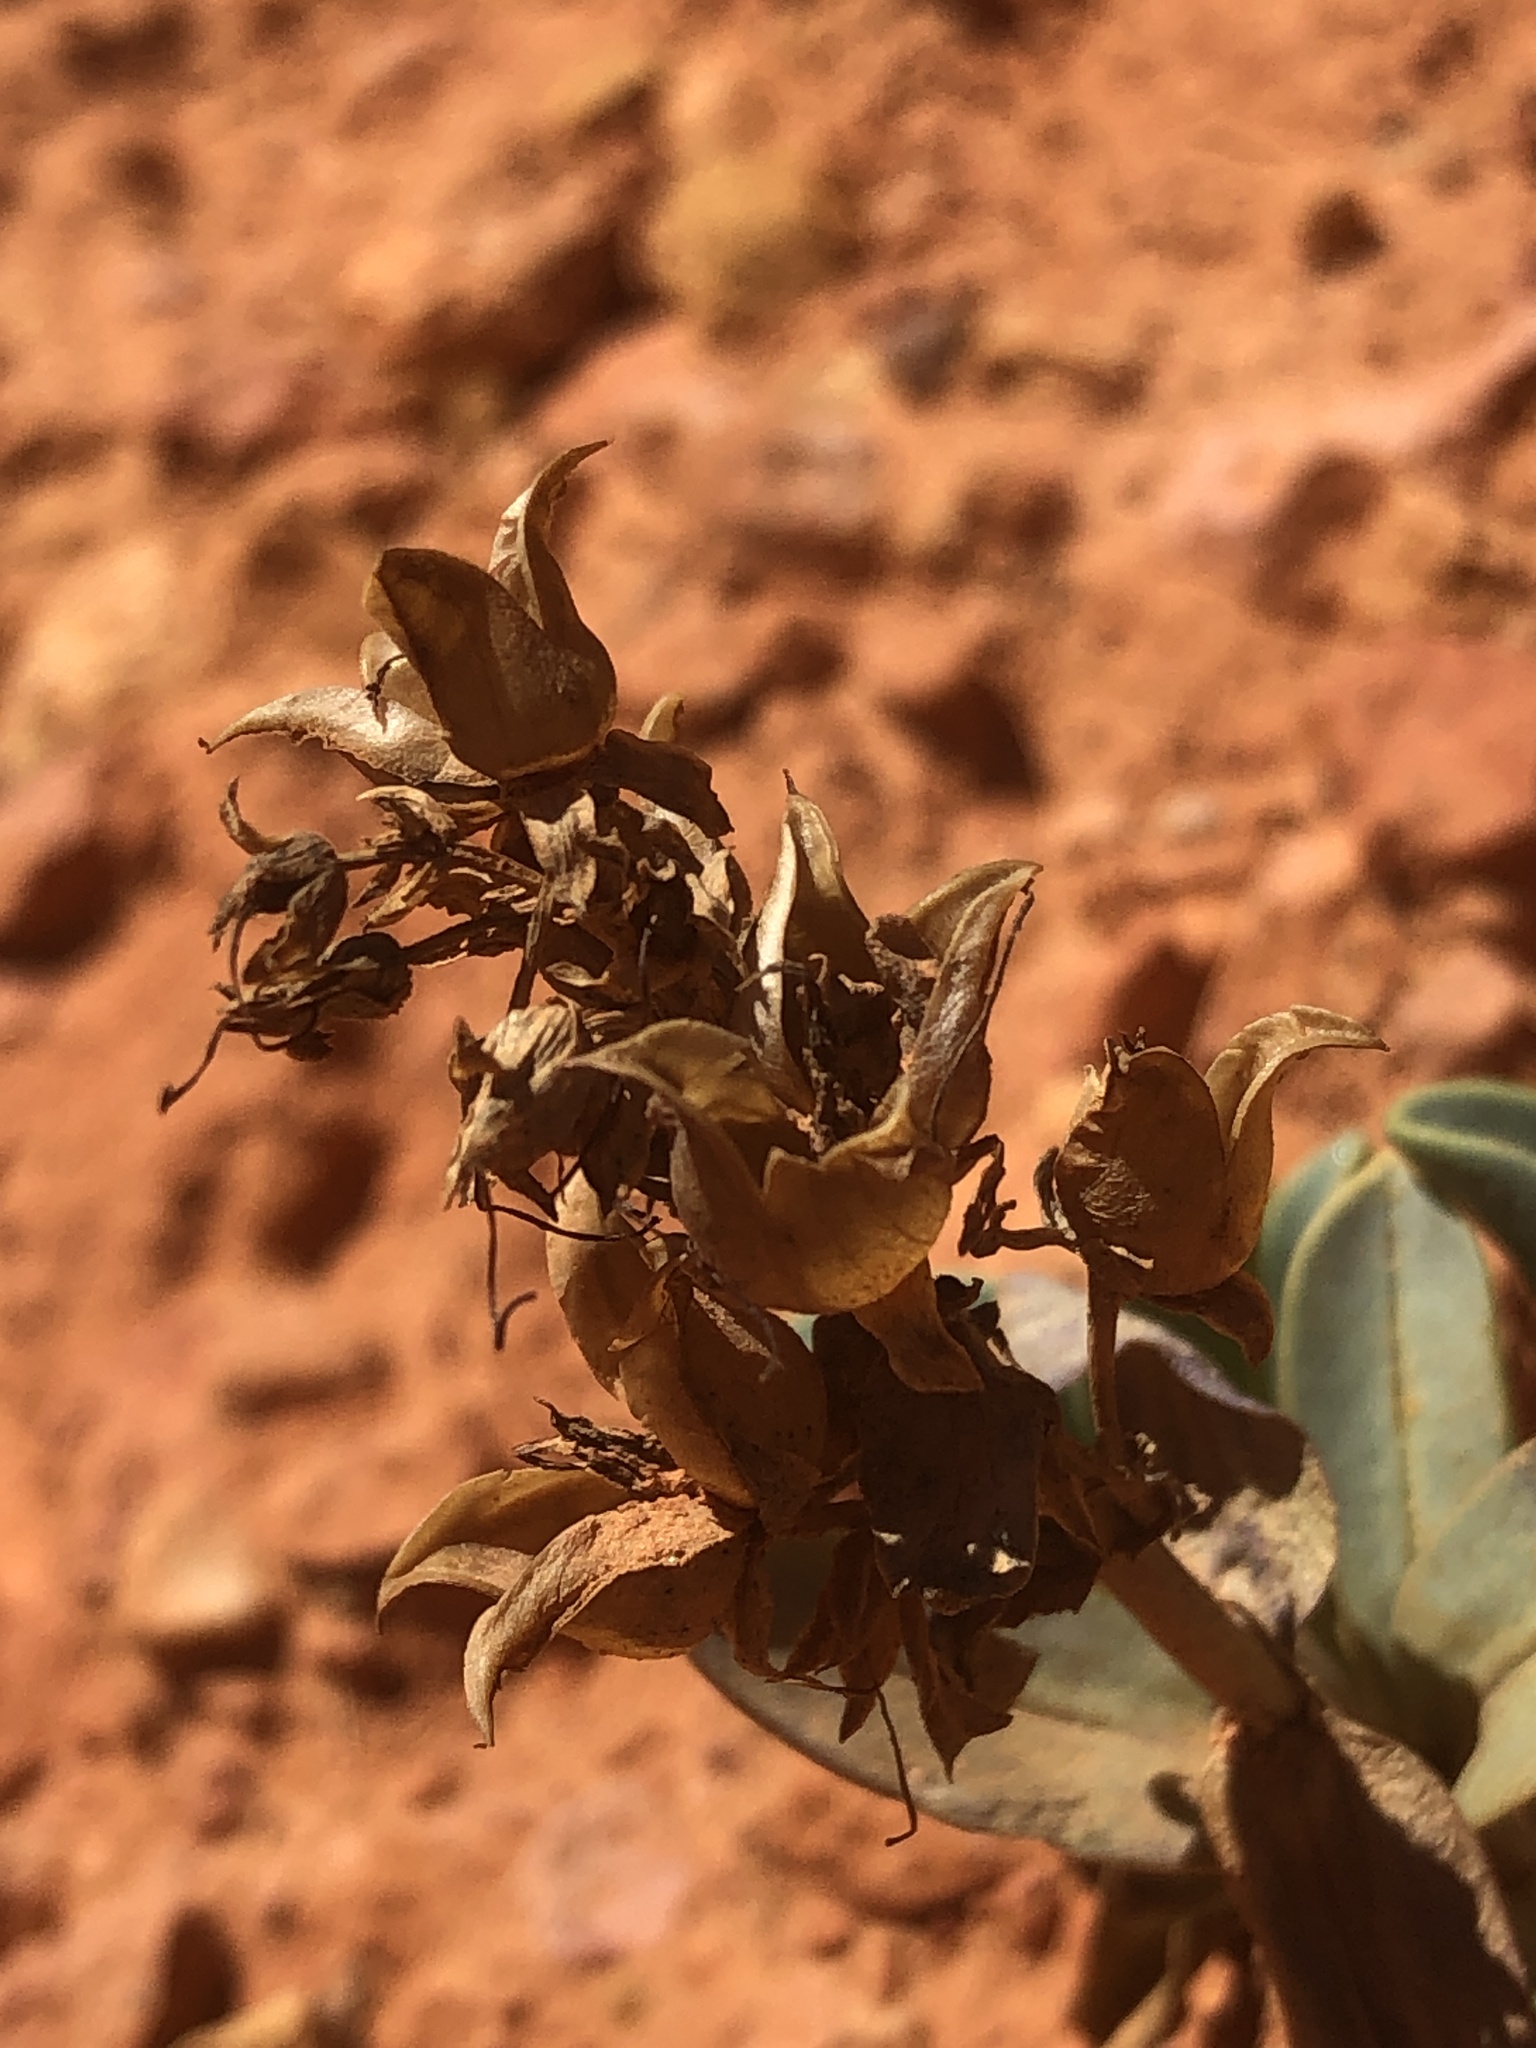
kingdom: Plantae
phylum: Tracheophyta
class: Magnoliopsida
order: Lamiales
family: Plantaginaceae
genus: Penstemon
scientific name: Penstemon bracteatus
